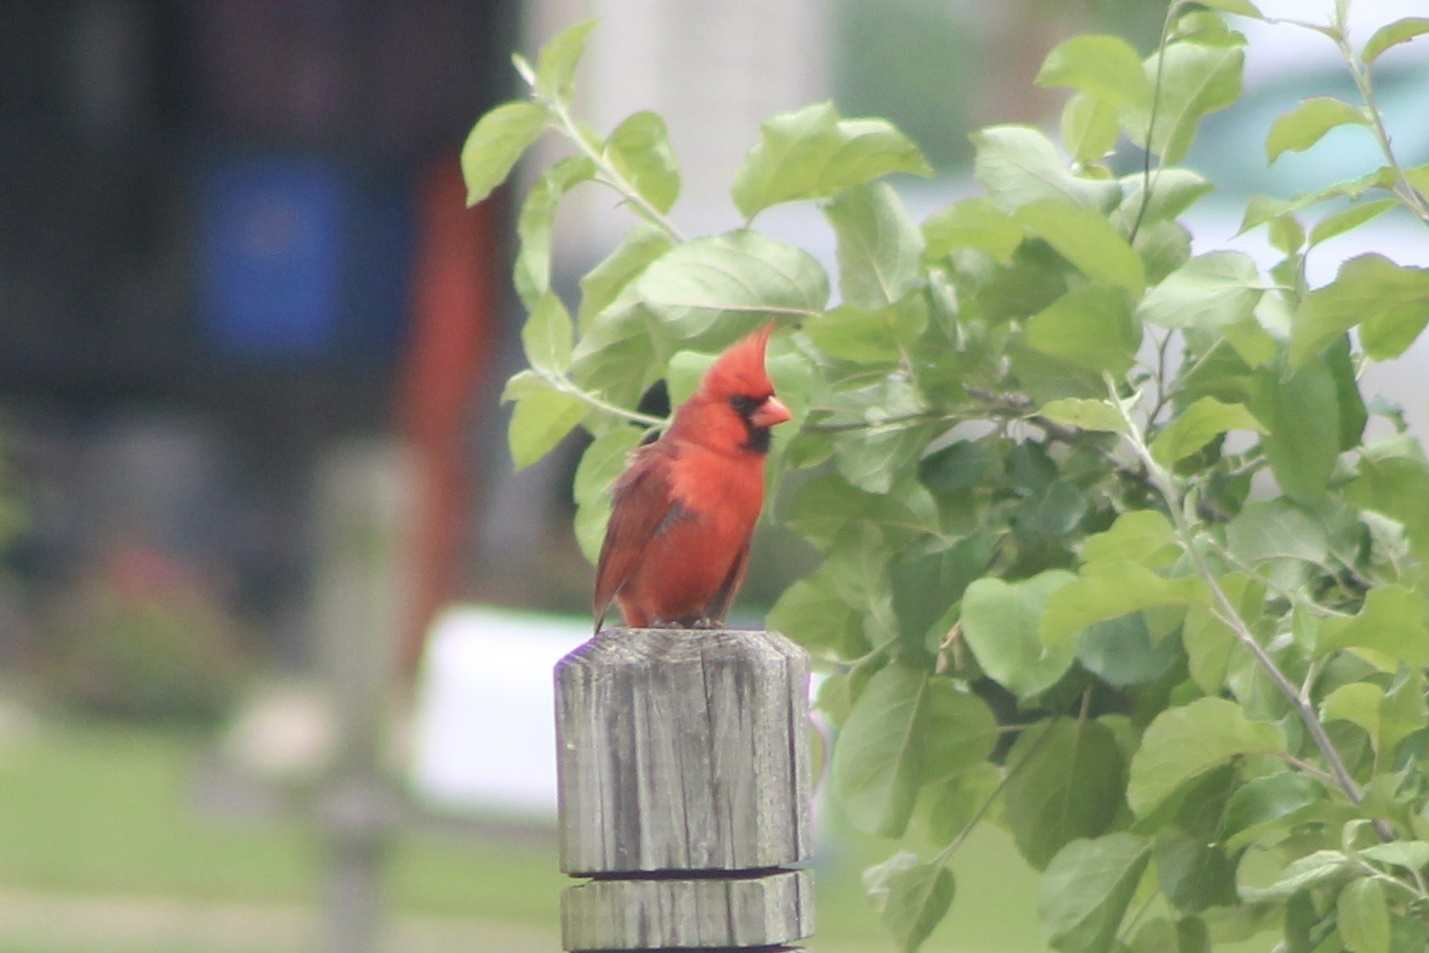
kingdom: Animalia
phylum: Chordata
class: Aves
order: Passeriformes
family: Cardinalidae
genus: Cardinalis
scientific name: Cardinalis cardinalis
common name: Northern cardinal
